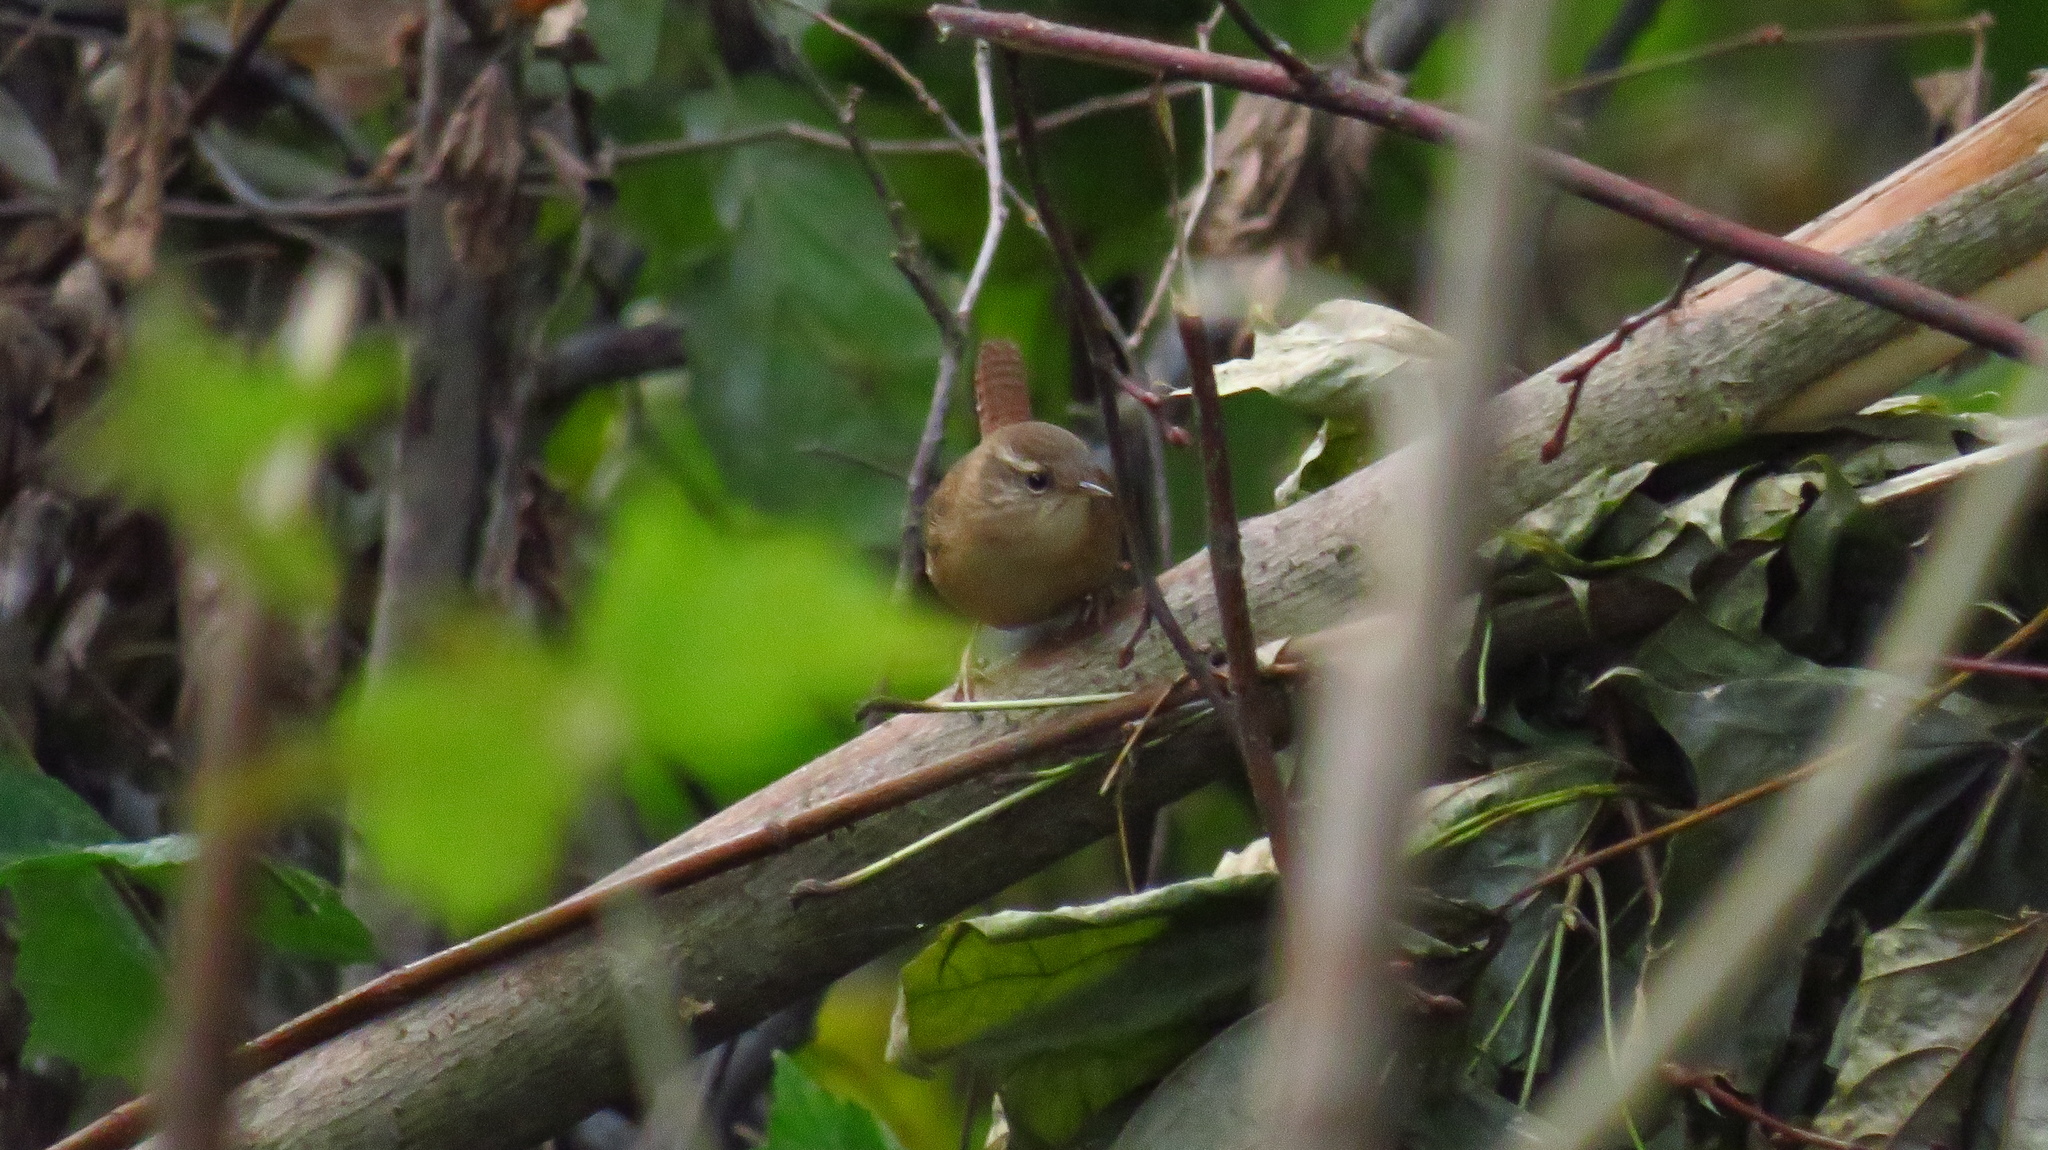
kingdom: Animalia
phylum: Chordata
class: Aves
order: Passeriformes
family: Troglodytidae
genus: Troglodytes
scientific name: Troglodytes troglodytes
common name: Eurasian wren
